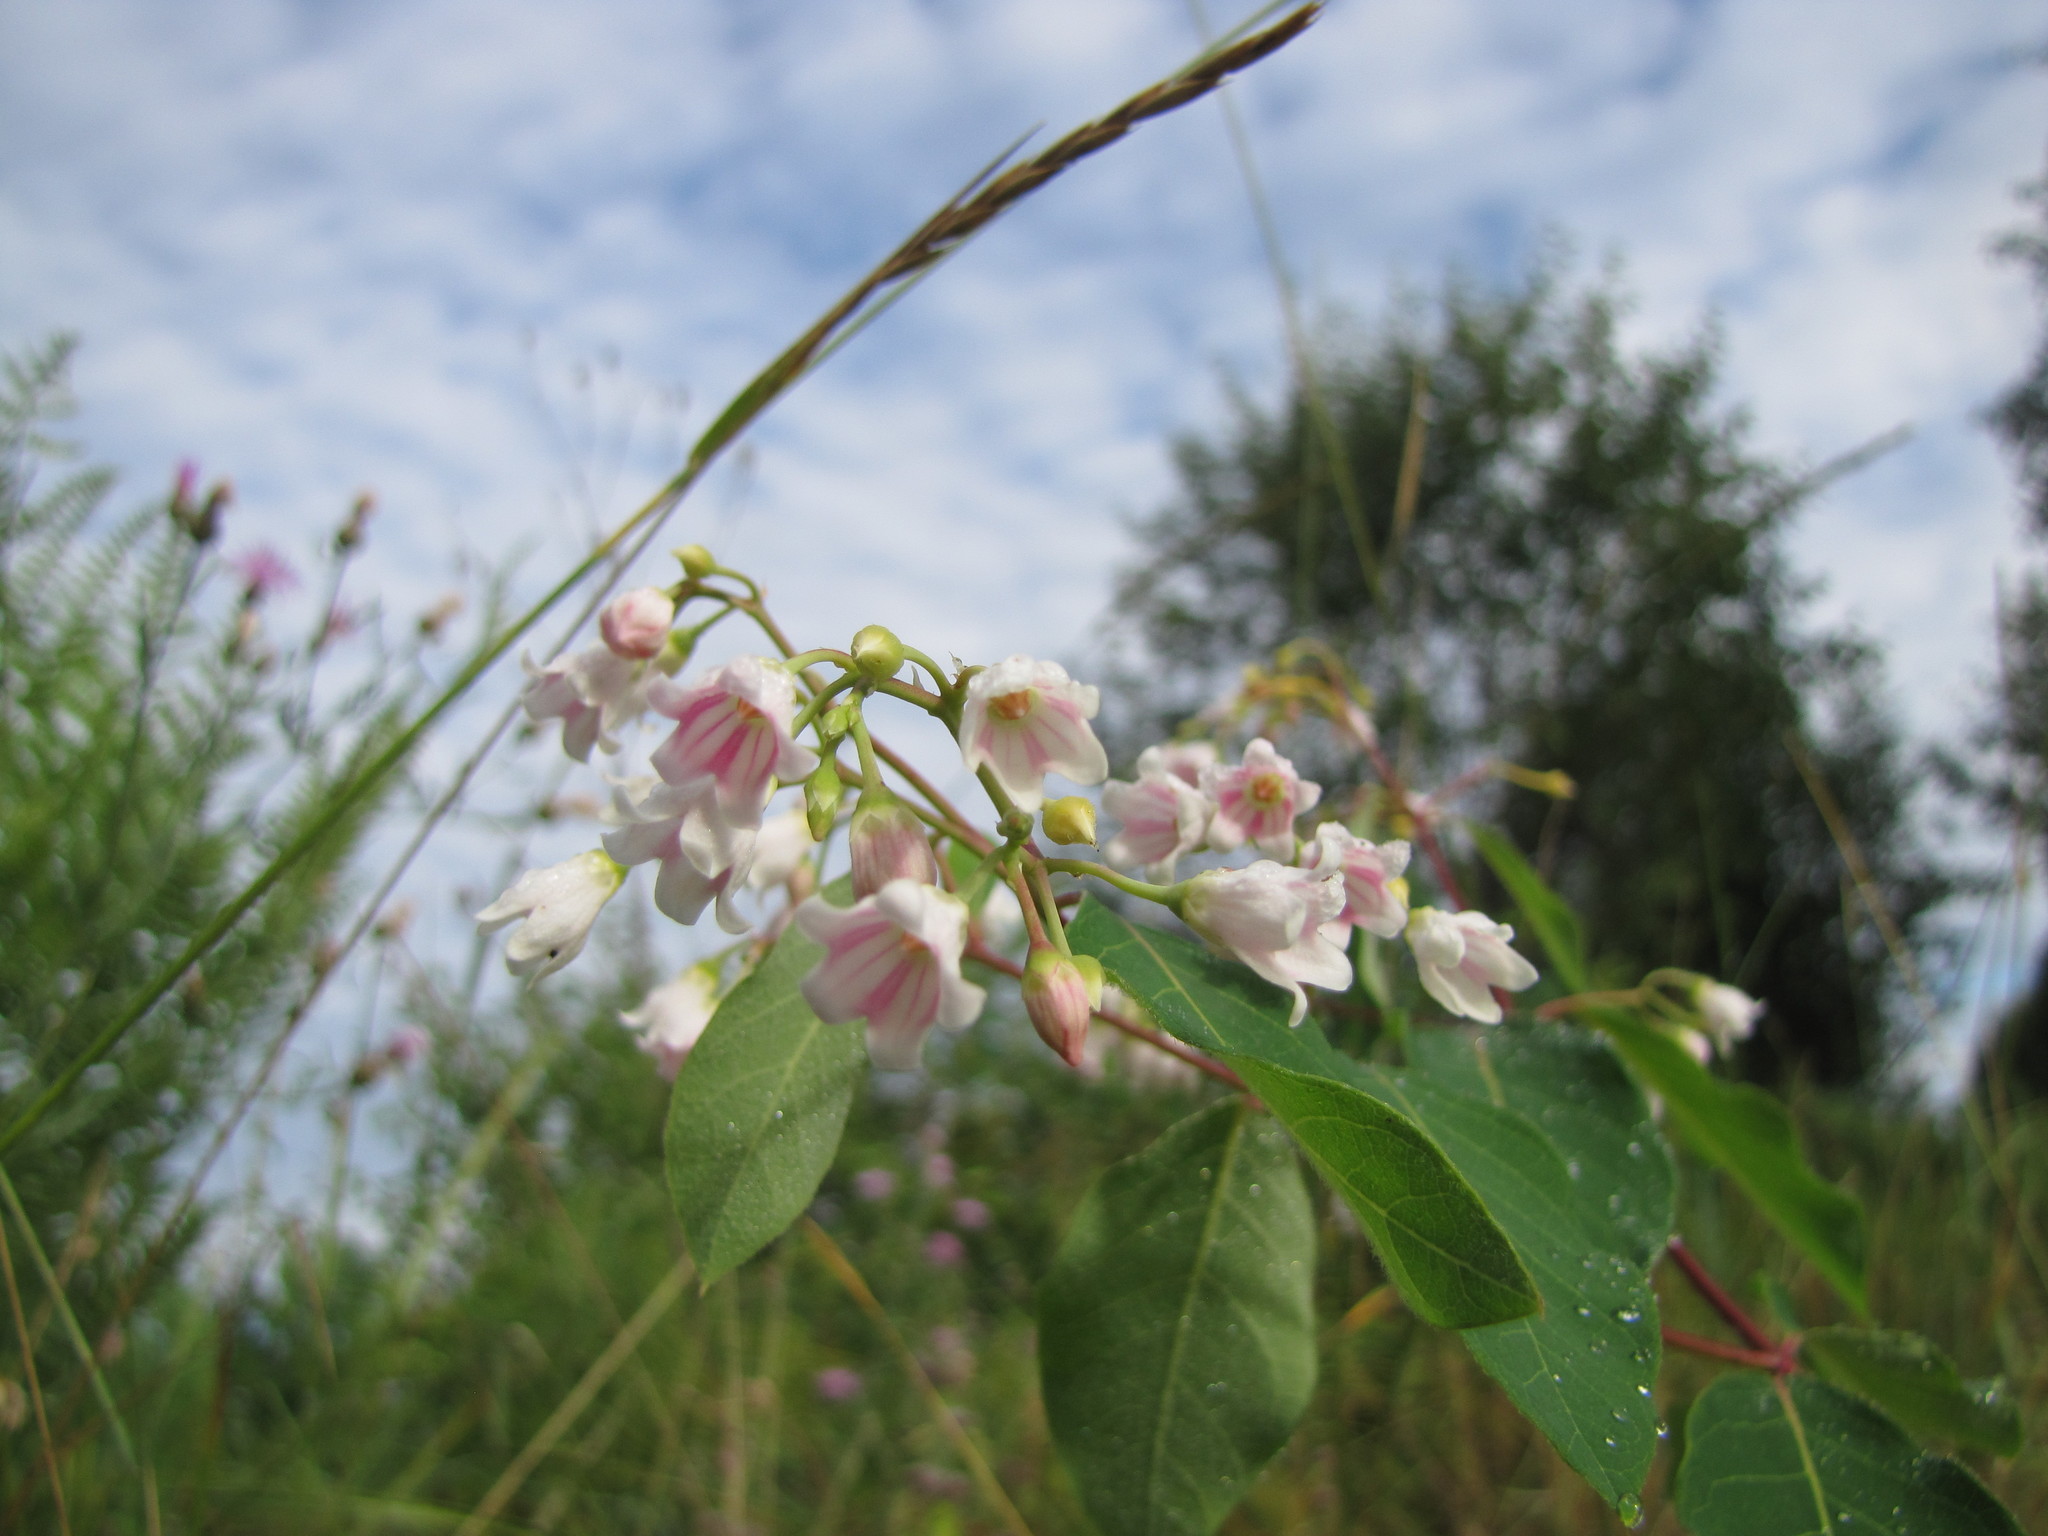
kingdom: Plantae
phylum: Tracheophyta
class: Magnoliopsida
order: Gentianales
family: Apocynaceae
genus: Apocynum
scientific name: Apocynum androsaemifolium
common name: Spreading dogbane
